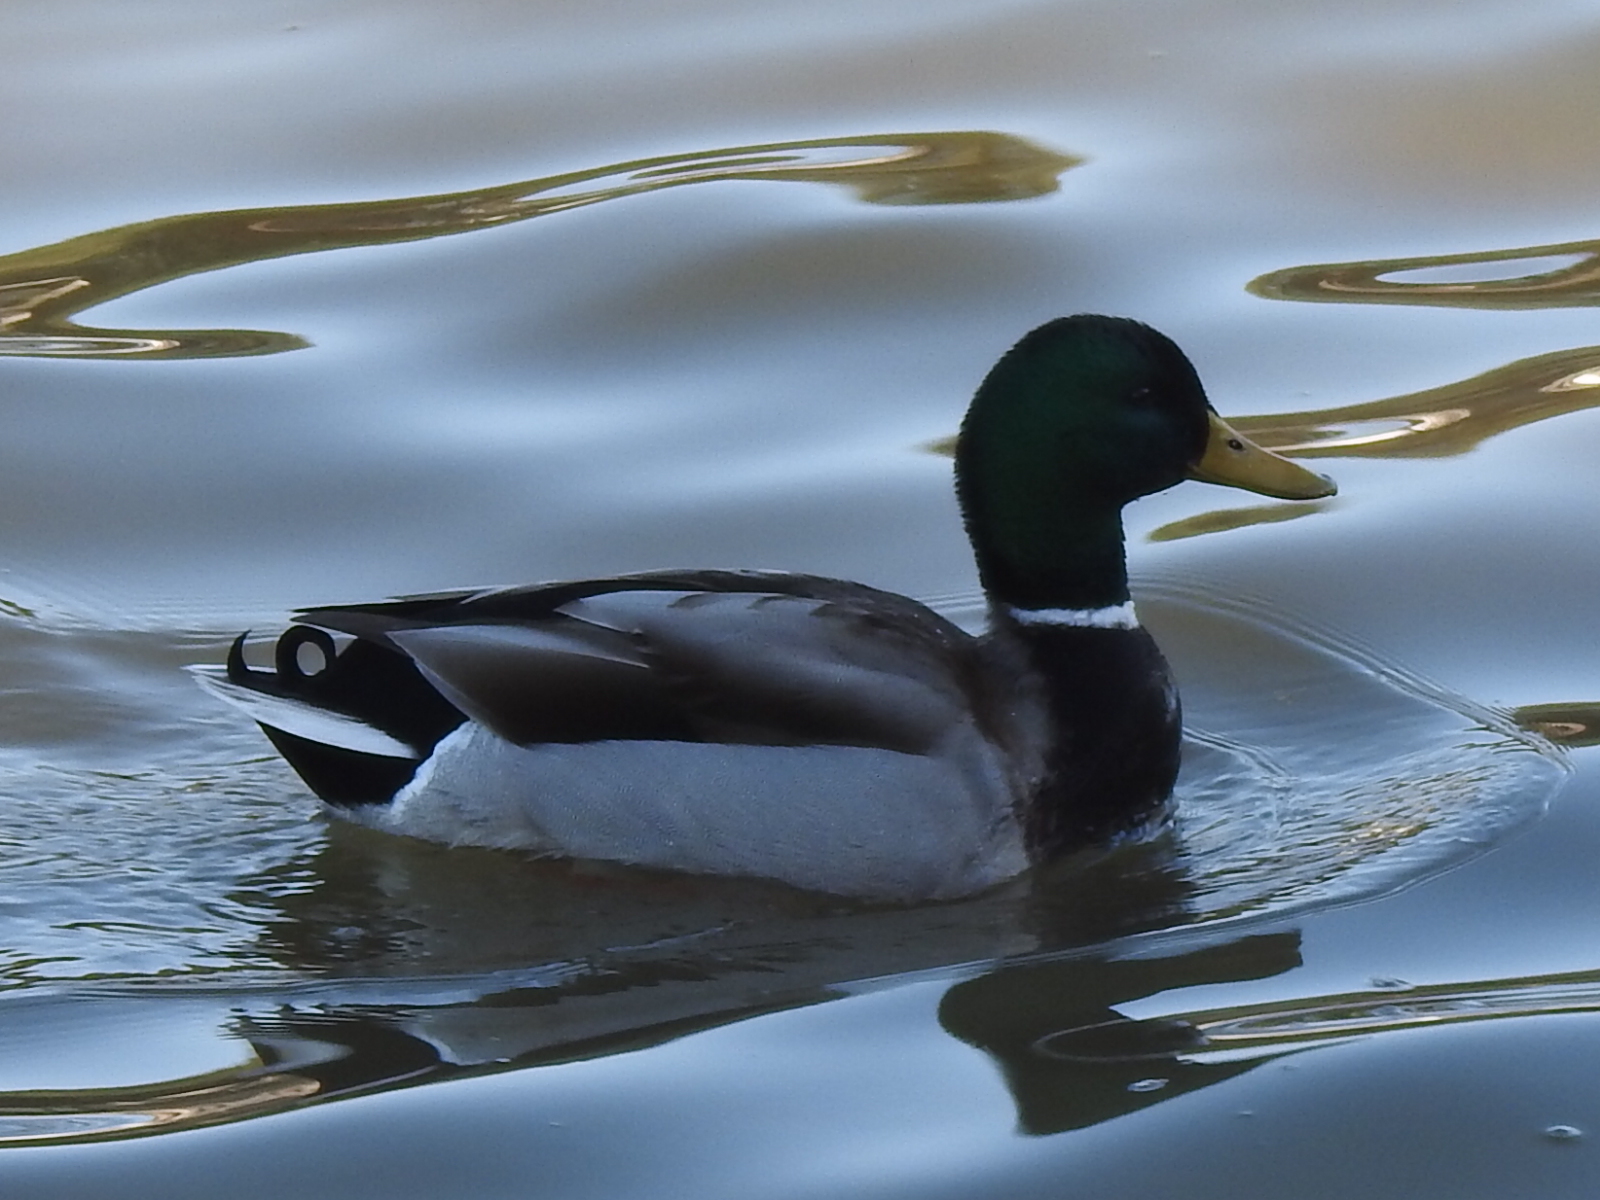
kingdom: Animalia
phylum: Chordata
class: Aves
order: Anseriformes
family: Anatidae
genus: Anas
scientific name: Anas platyrhynchos
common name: Mallard
